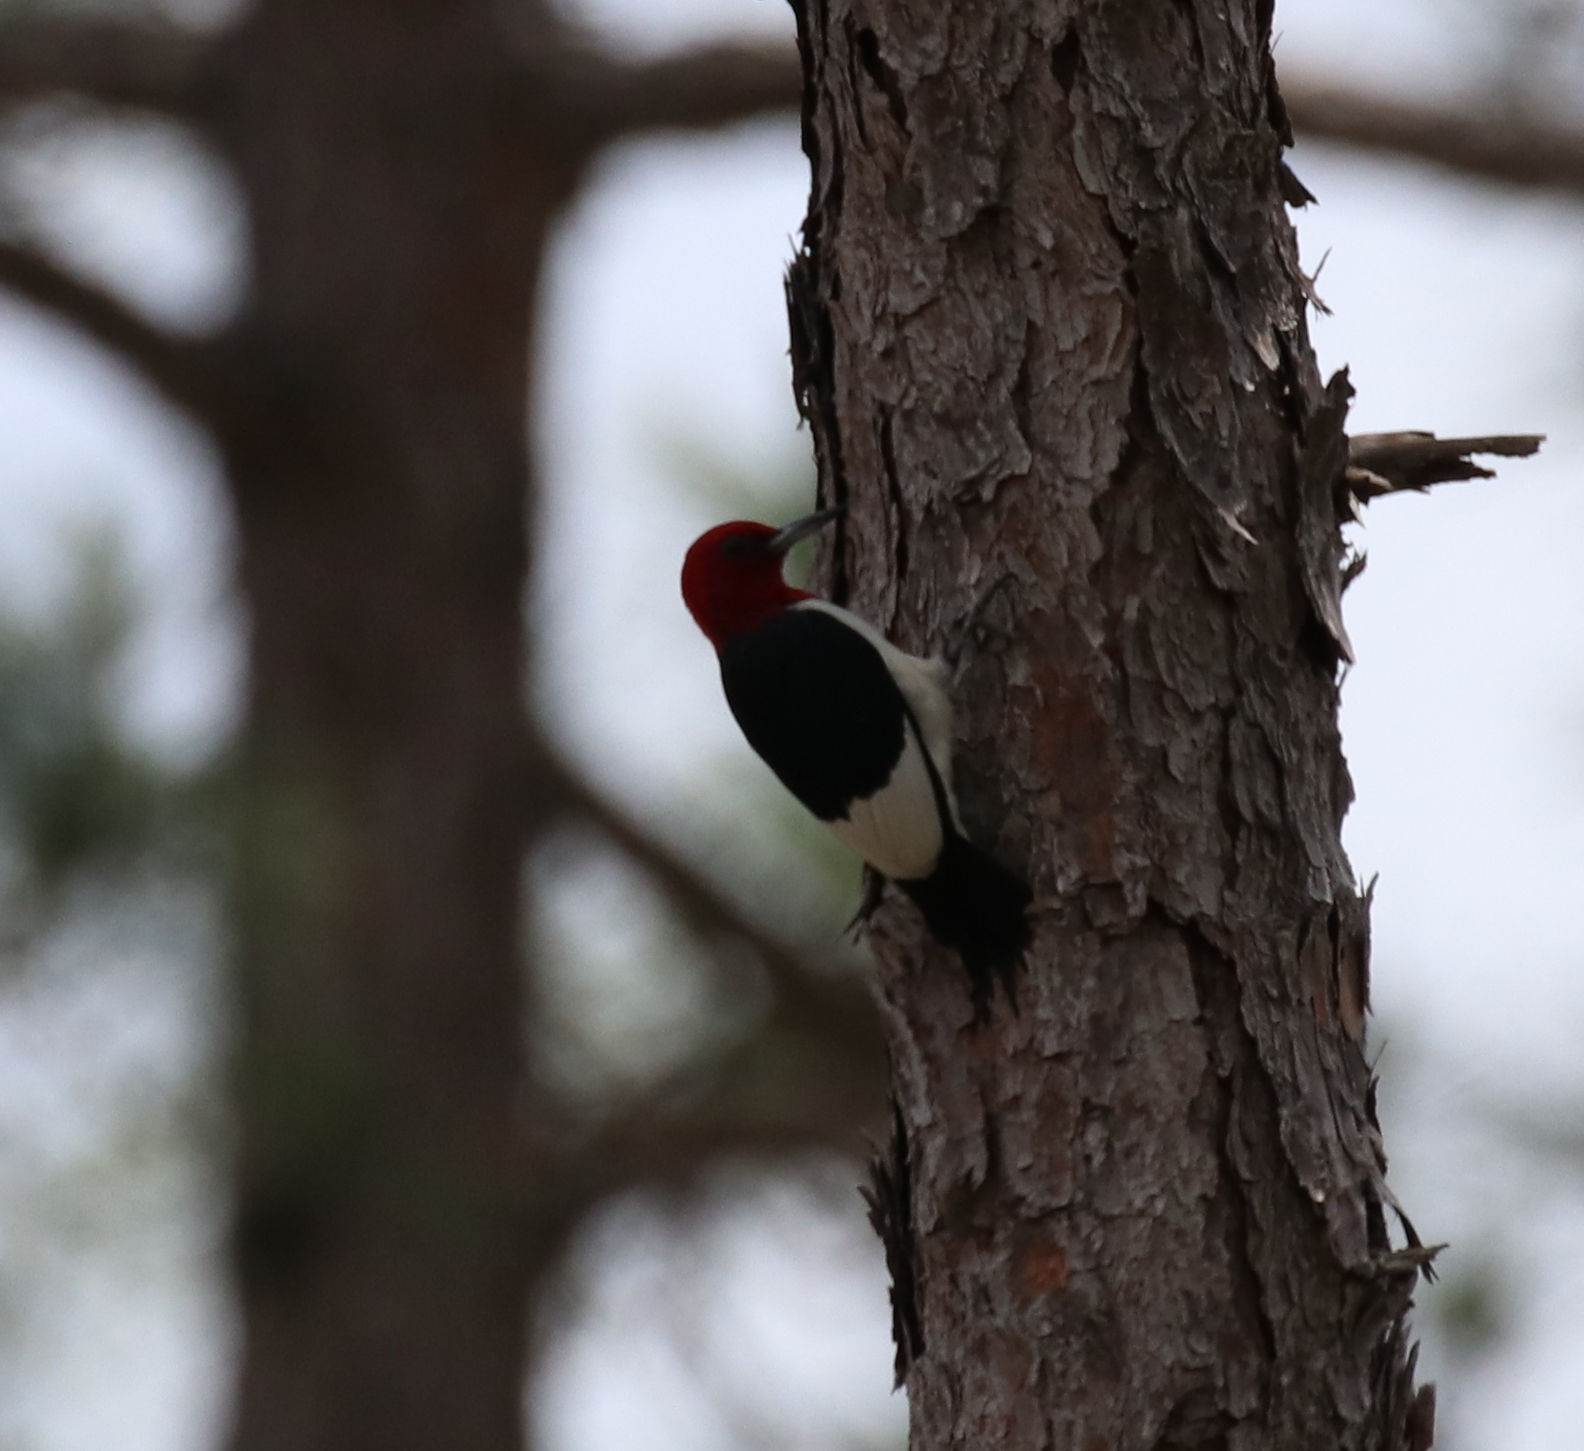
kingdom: Animalia
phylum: Chordata
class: Aves
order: Piciformes
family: Picidae
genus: Melanerpes
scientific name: Melanerpes erythrocephalus
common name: Red-headed woodpecker
